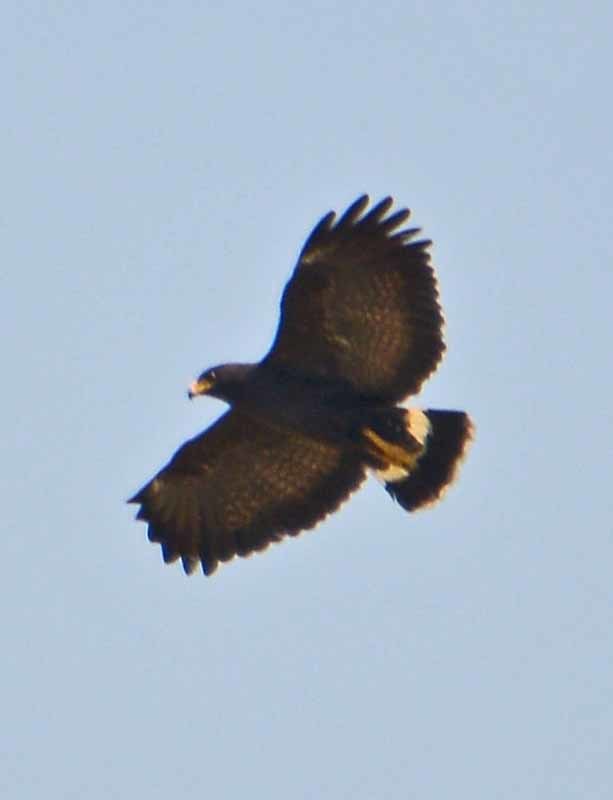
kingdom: Animalia
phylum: Chordata
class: Aves
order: Accipitriformes
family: Accipitridae
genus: Buteogallus
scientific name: Buteogallus anthracinus
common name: Common black hawk
